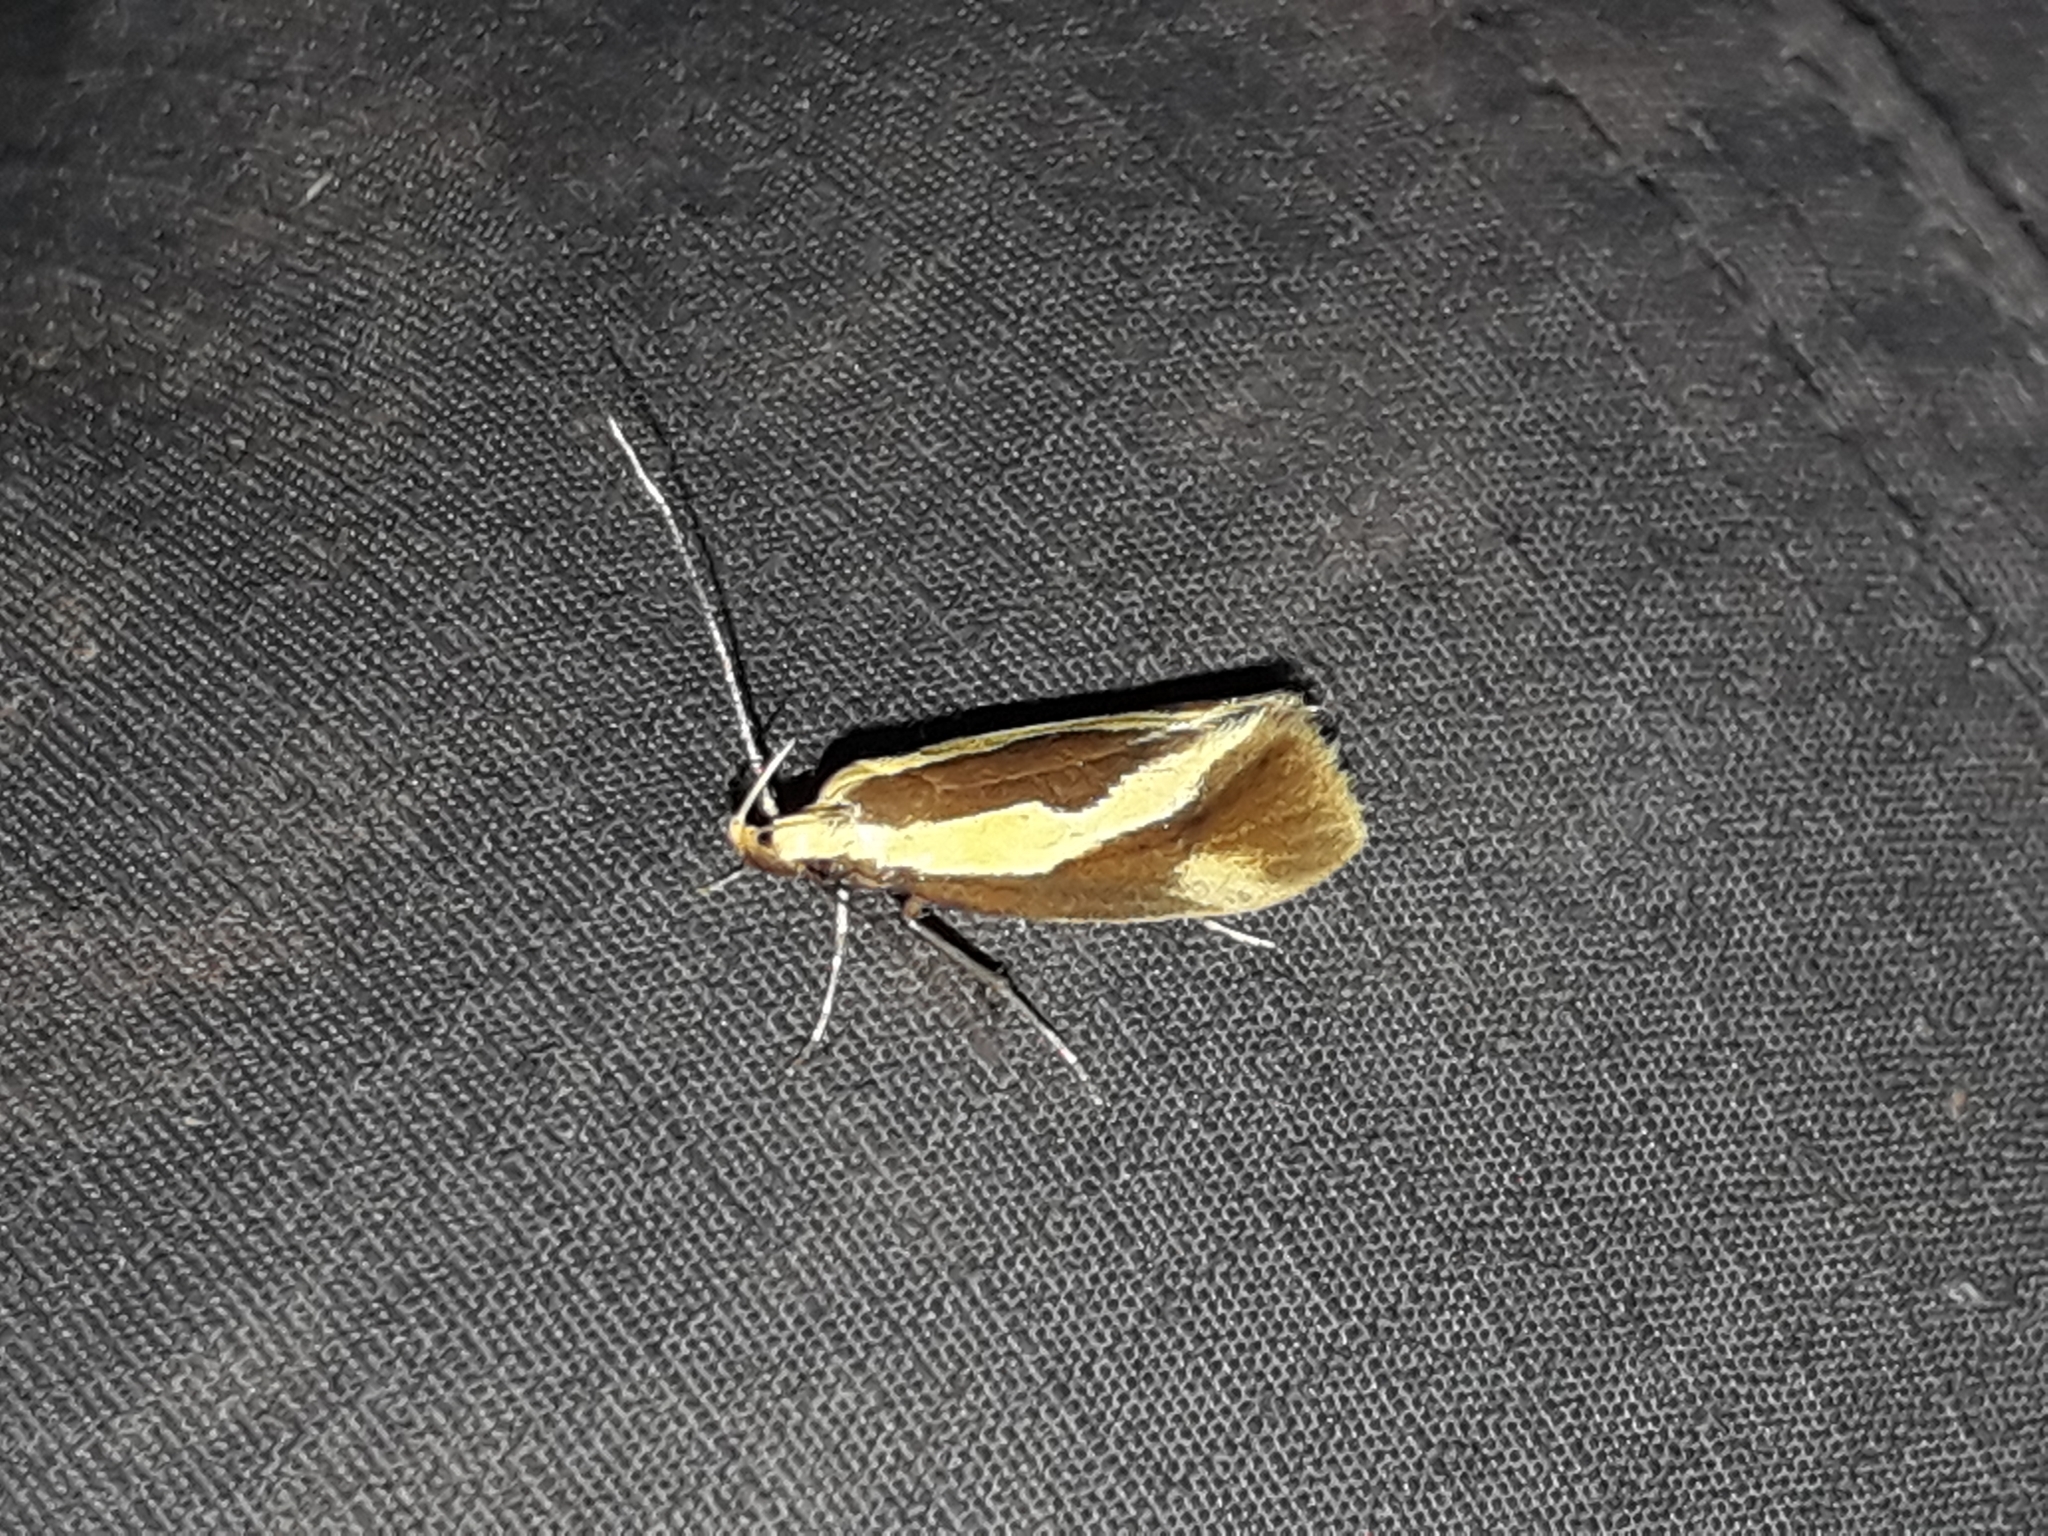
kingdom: Animalia
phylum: Arthropoda
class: Insecta
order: Lepidoptera
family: Oecophoridae
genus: Harpella
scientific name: Harpella forficella
